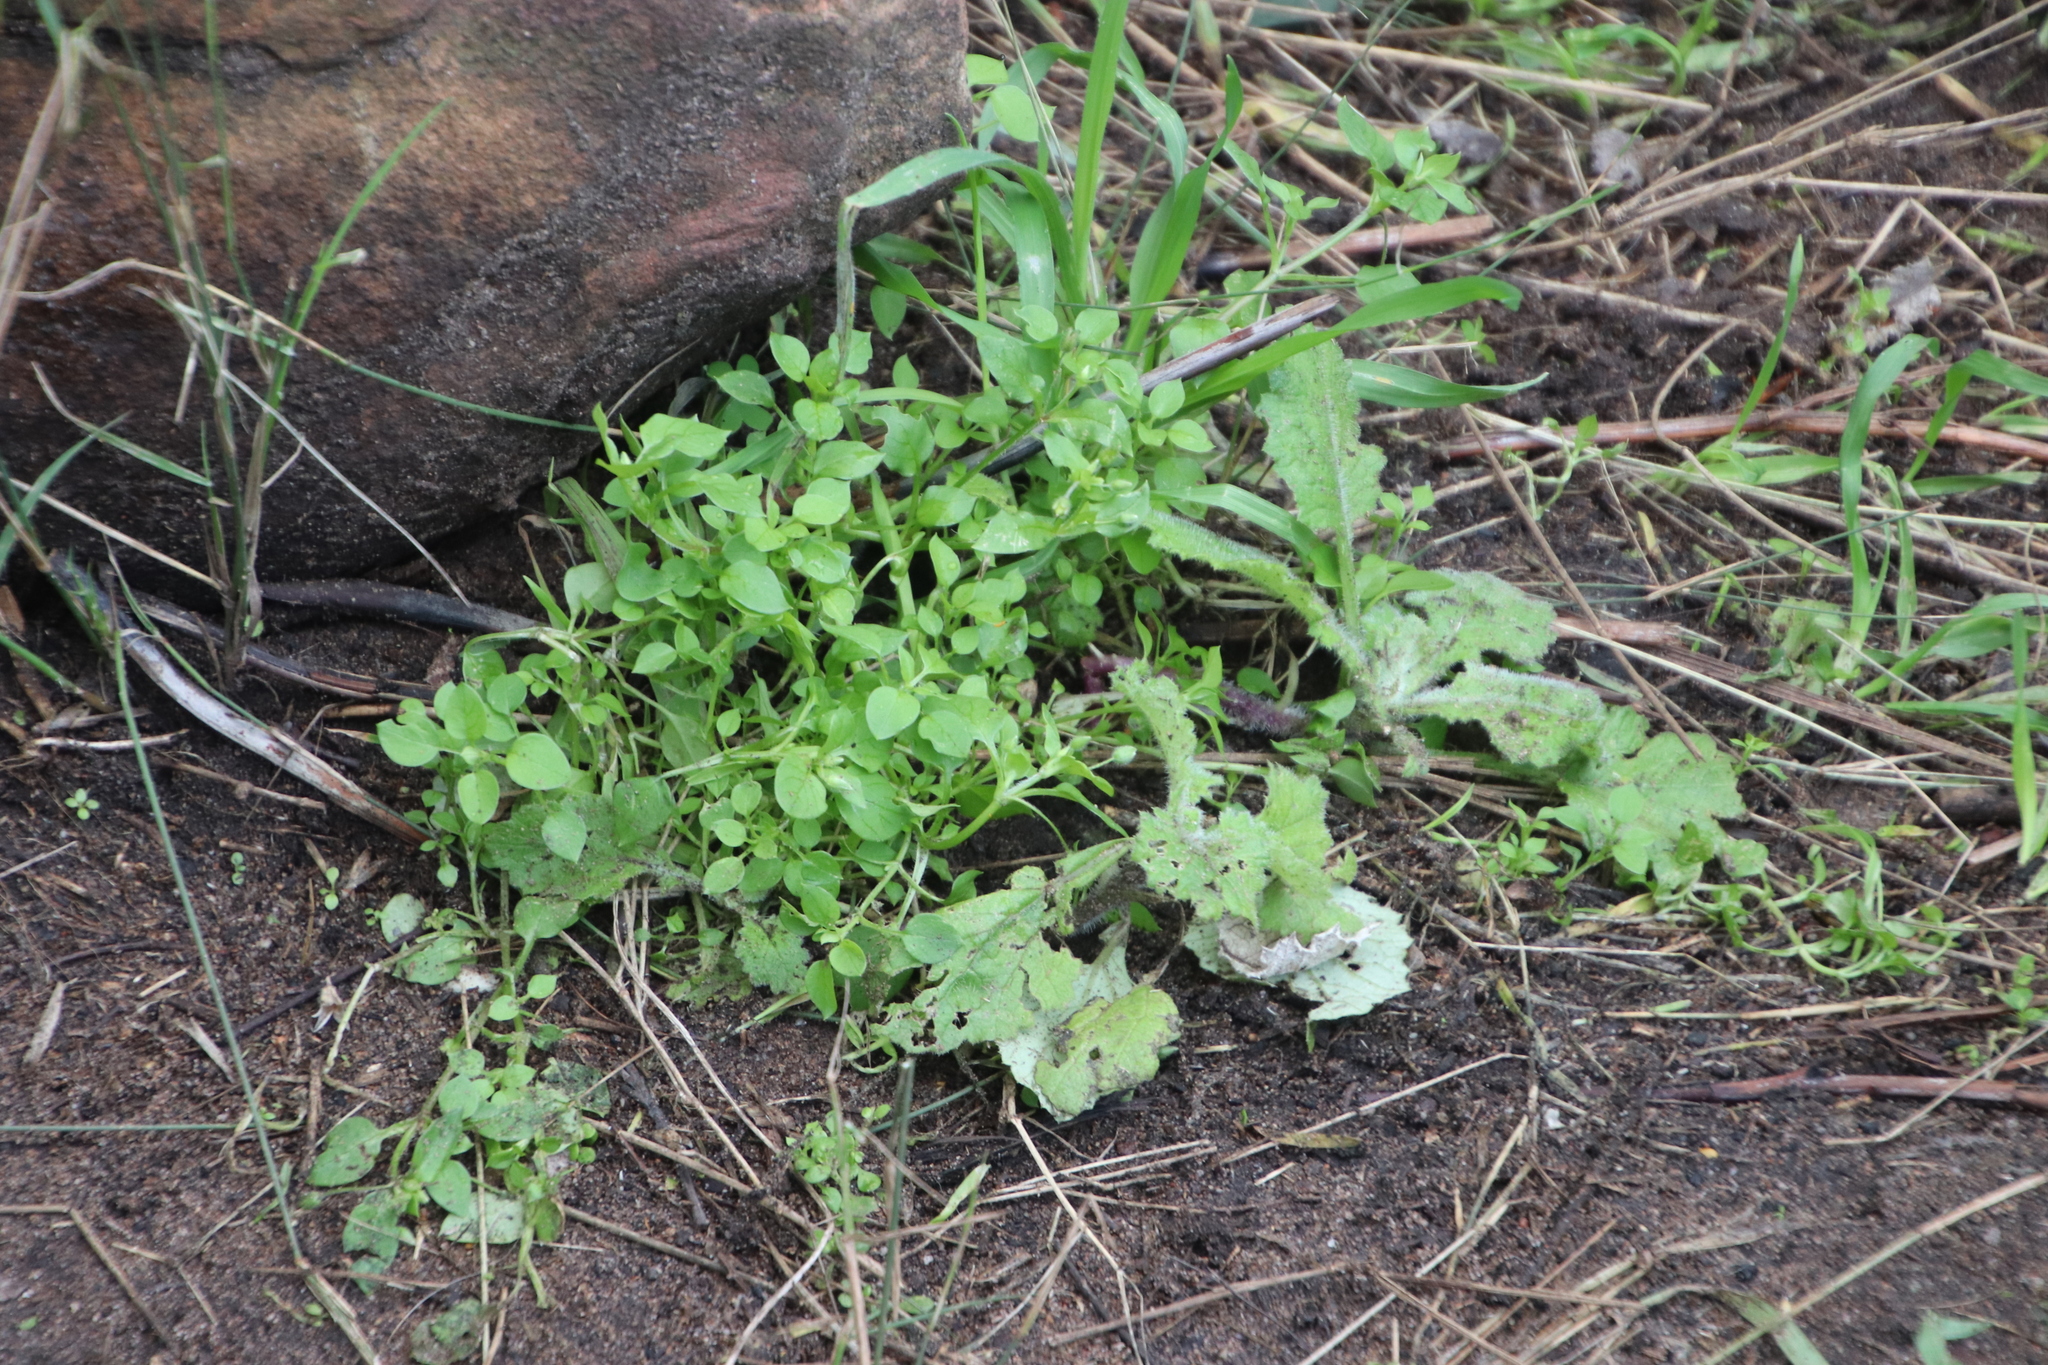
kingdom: Plantae
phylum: Tracheophyta
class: Magnoliopsida
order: Caryophyllales
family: Caryophyllaceae
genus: Stellaria
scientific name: Stellaria media
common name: Common chickweed
